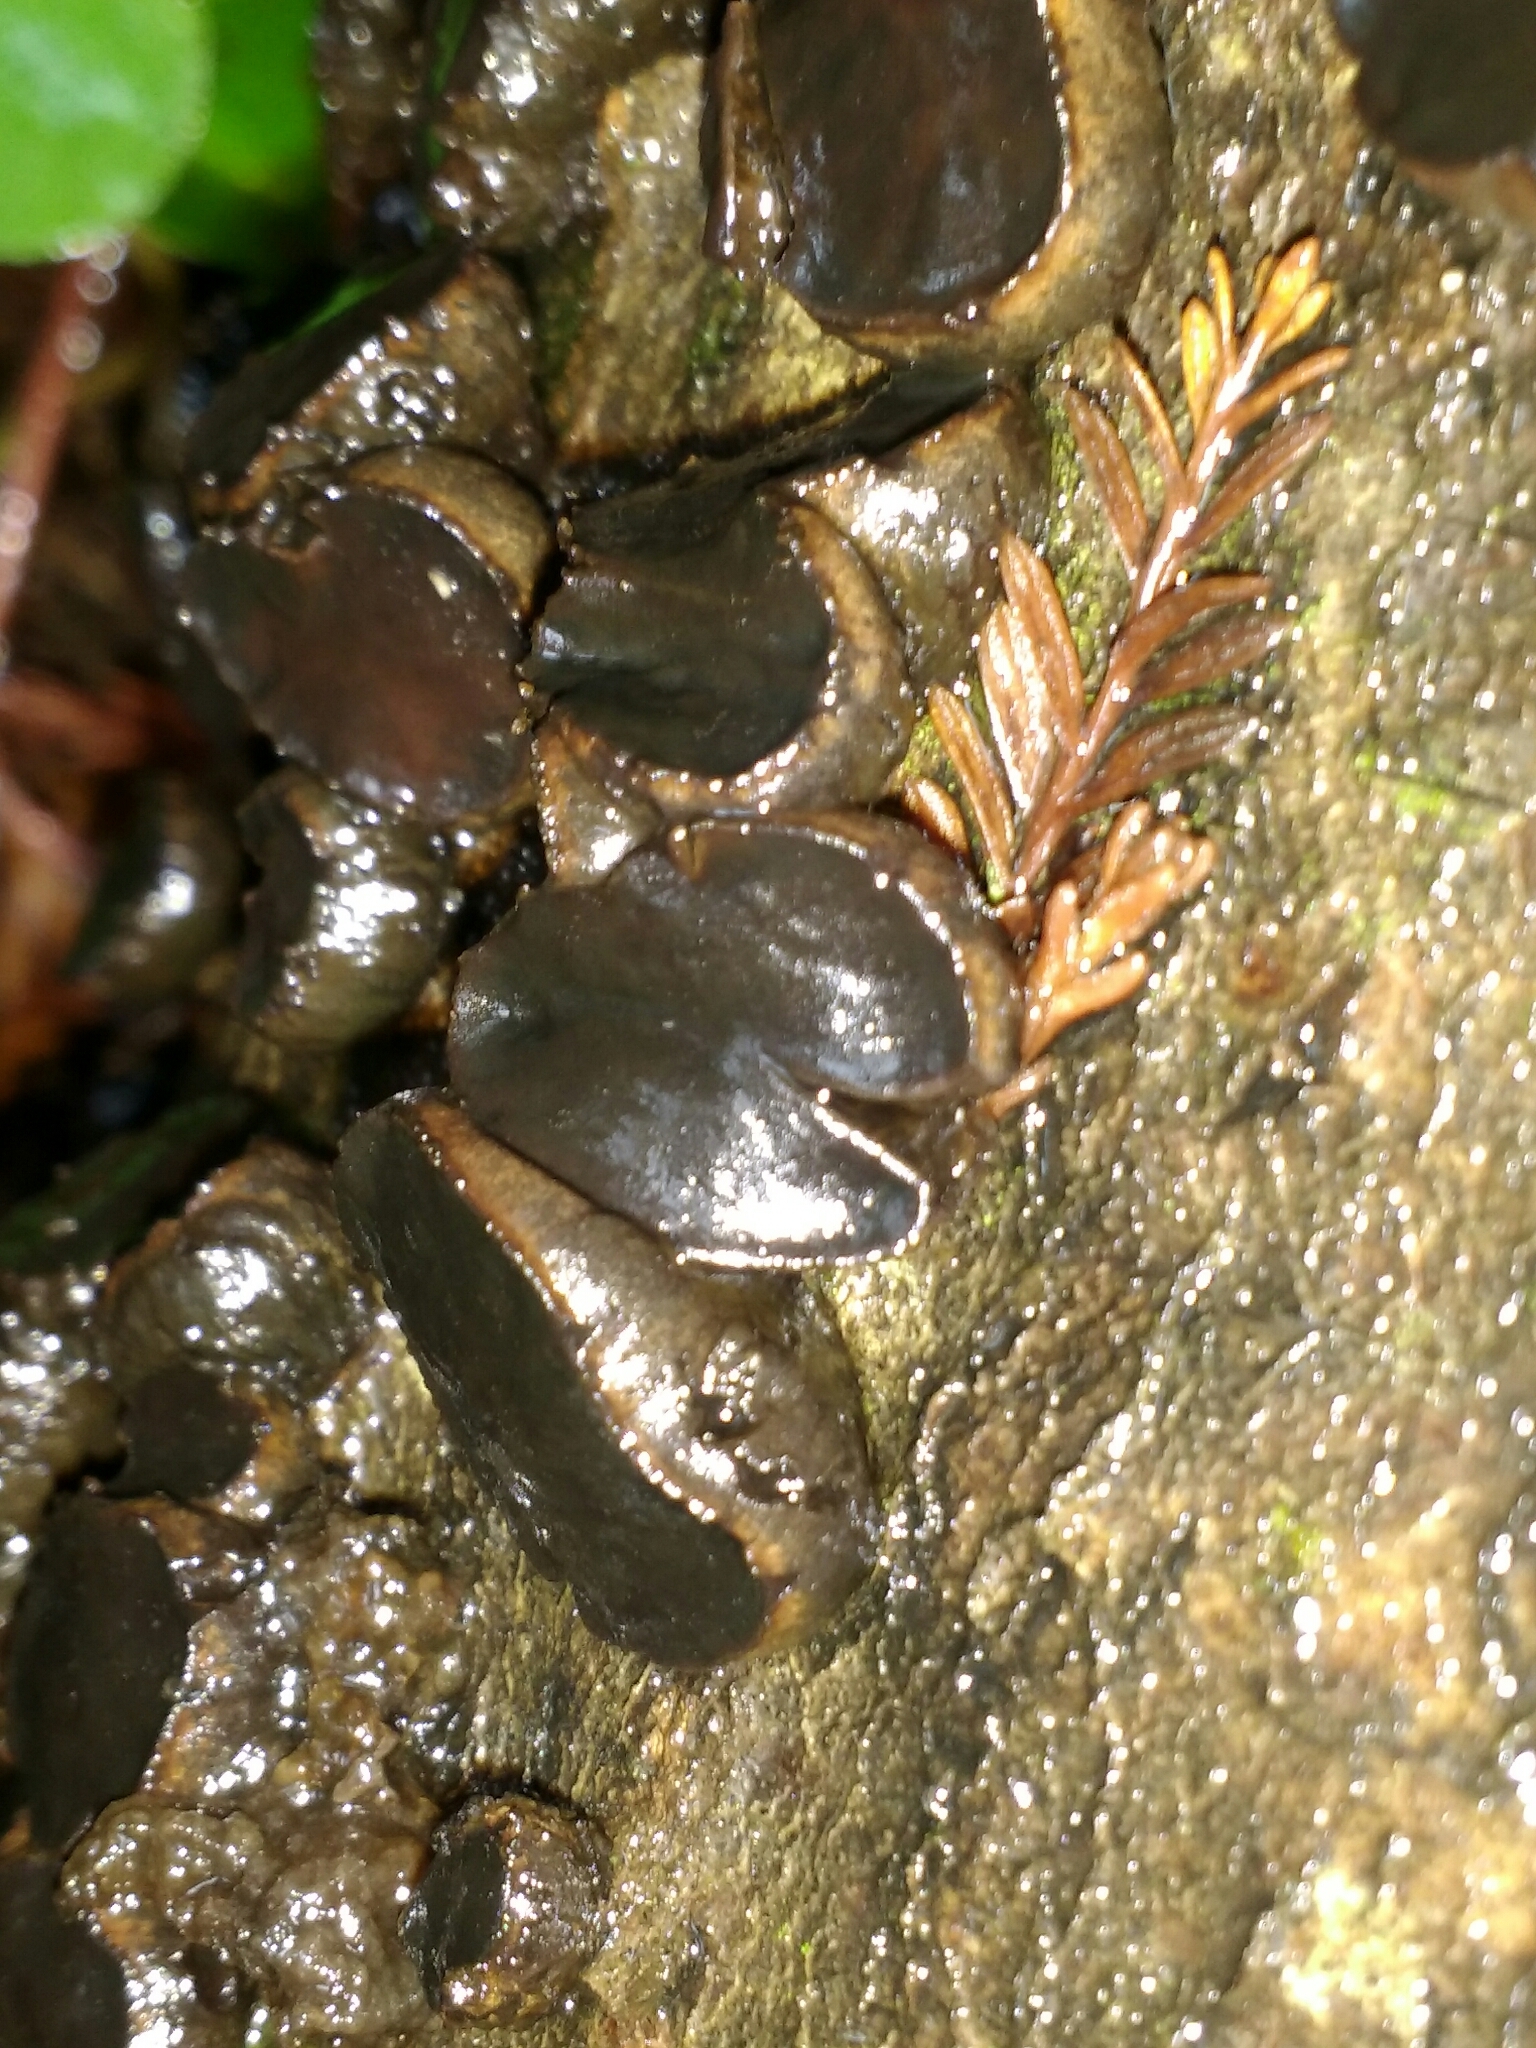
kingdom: Fungi
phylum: Ascomycota
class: Leotiomycetes
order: Phacidiales
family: Phacidiaceae
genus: Bulgaria
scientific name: Bulgaria inquinans
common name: Black bulgar
